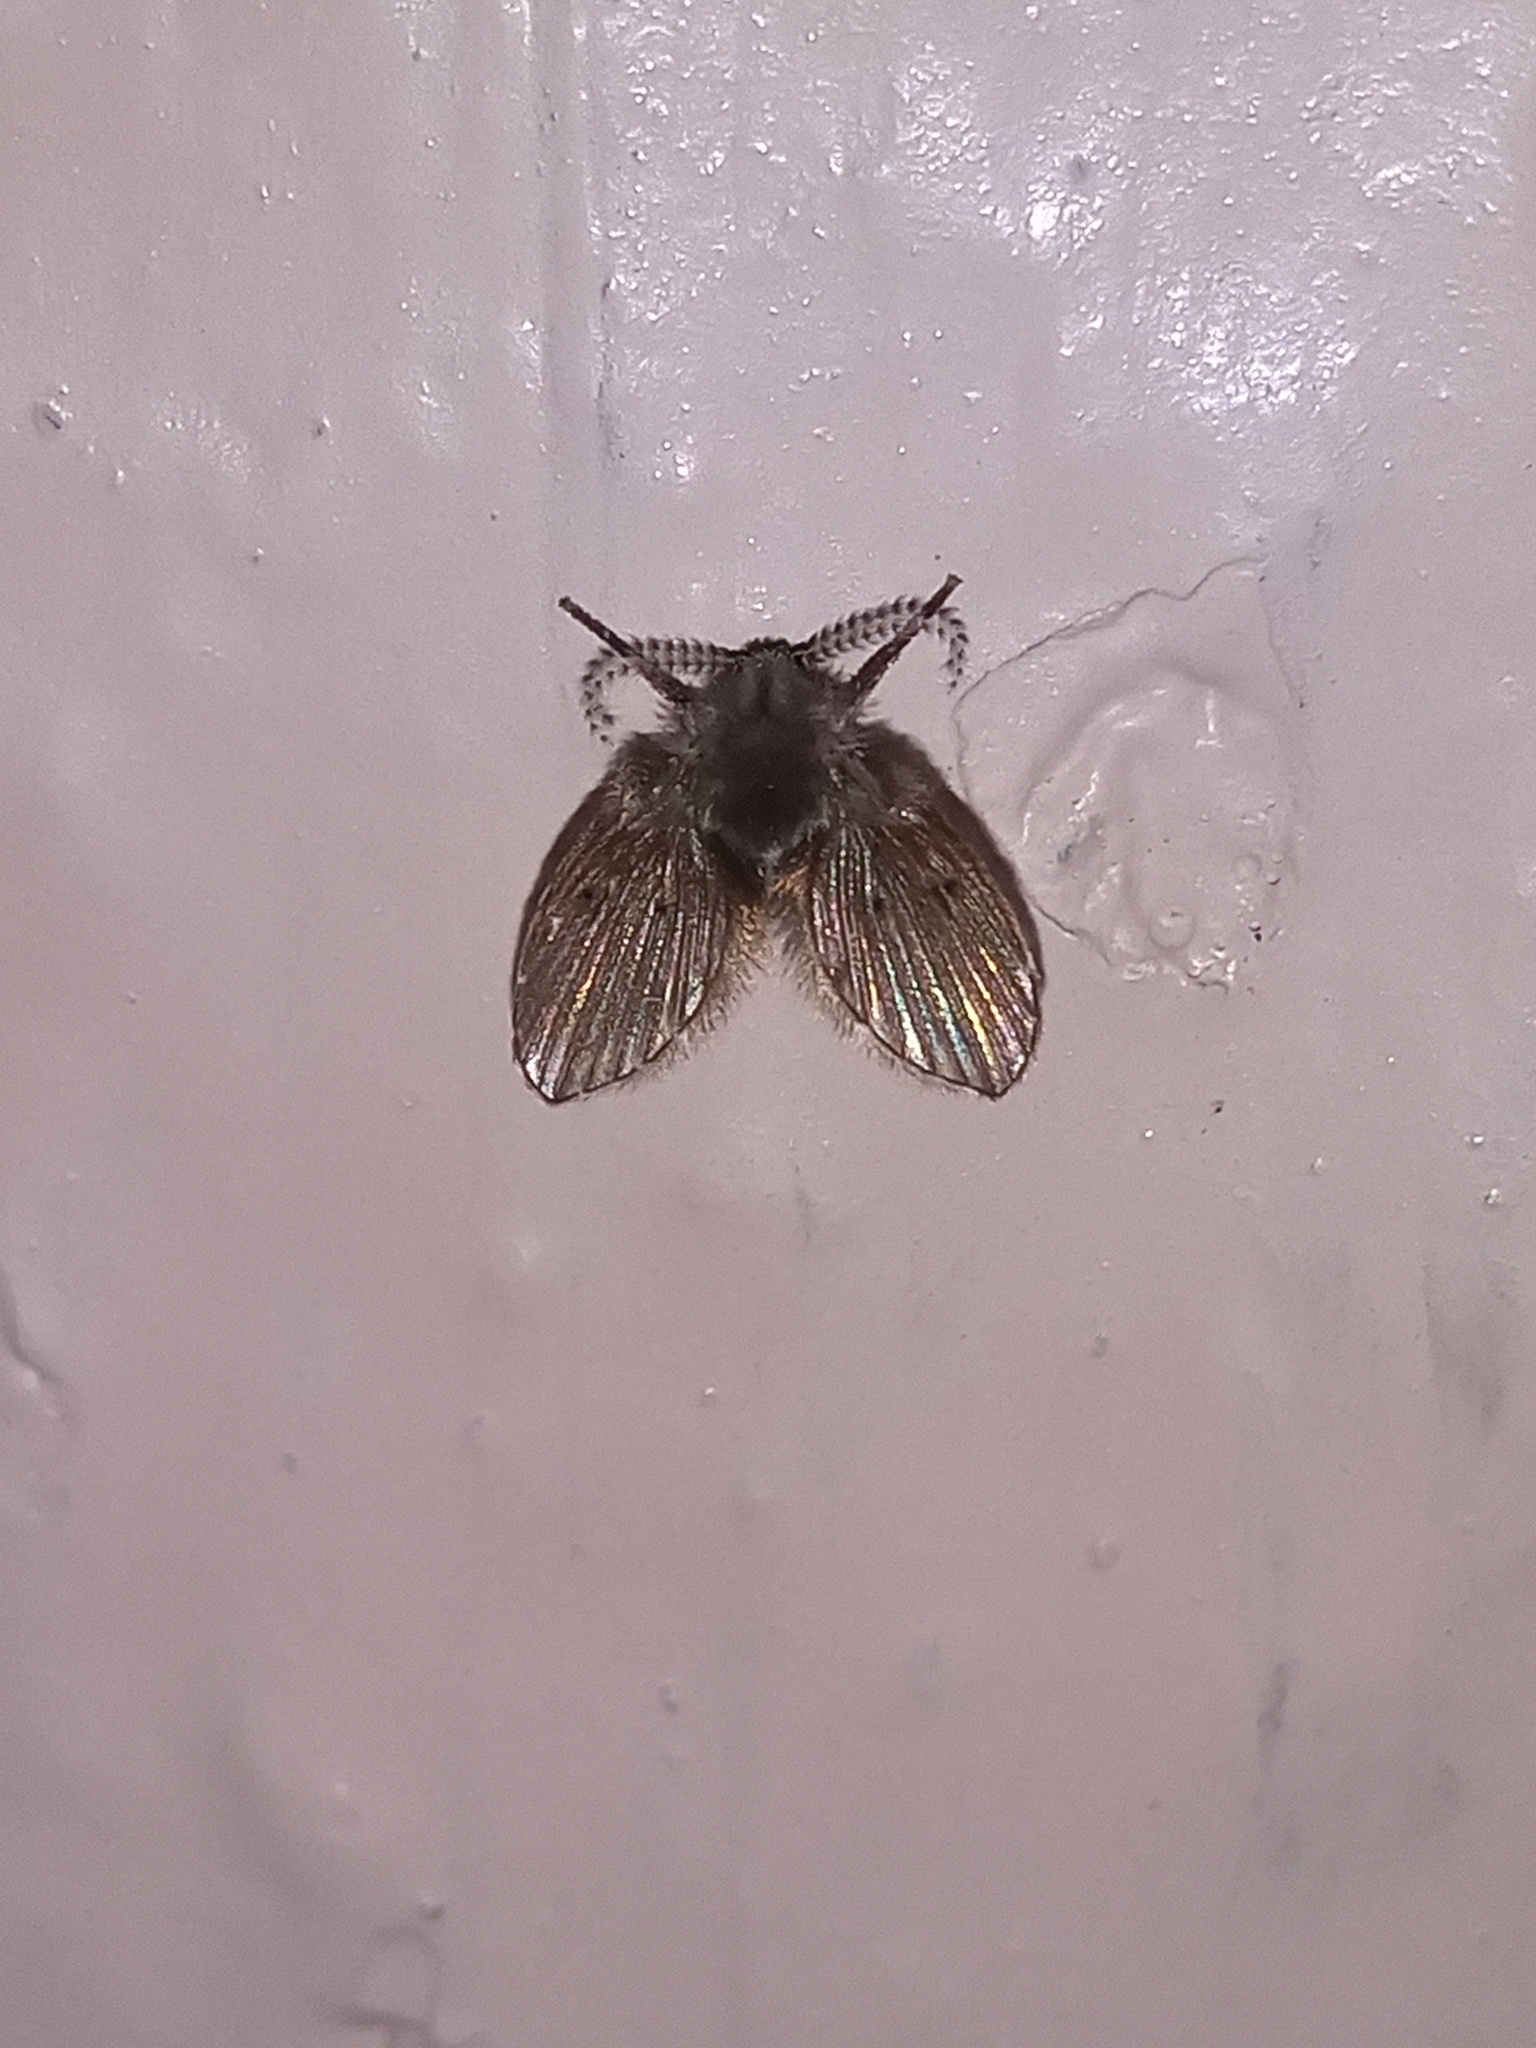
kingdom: Animalia
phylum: Arthropoda
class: Insecta
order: Diptera
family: Psychodidae
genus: Clogmia
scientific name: Clogmia albipunctatus
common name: White-spotted moth fly
